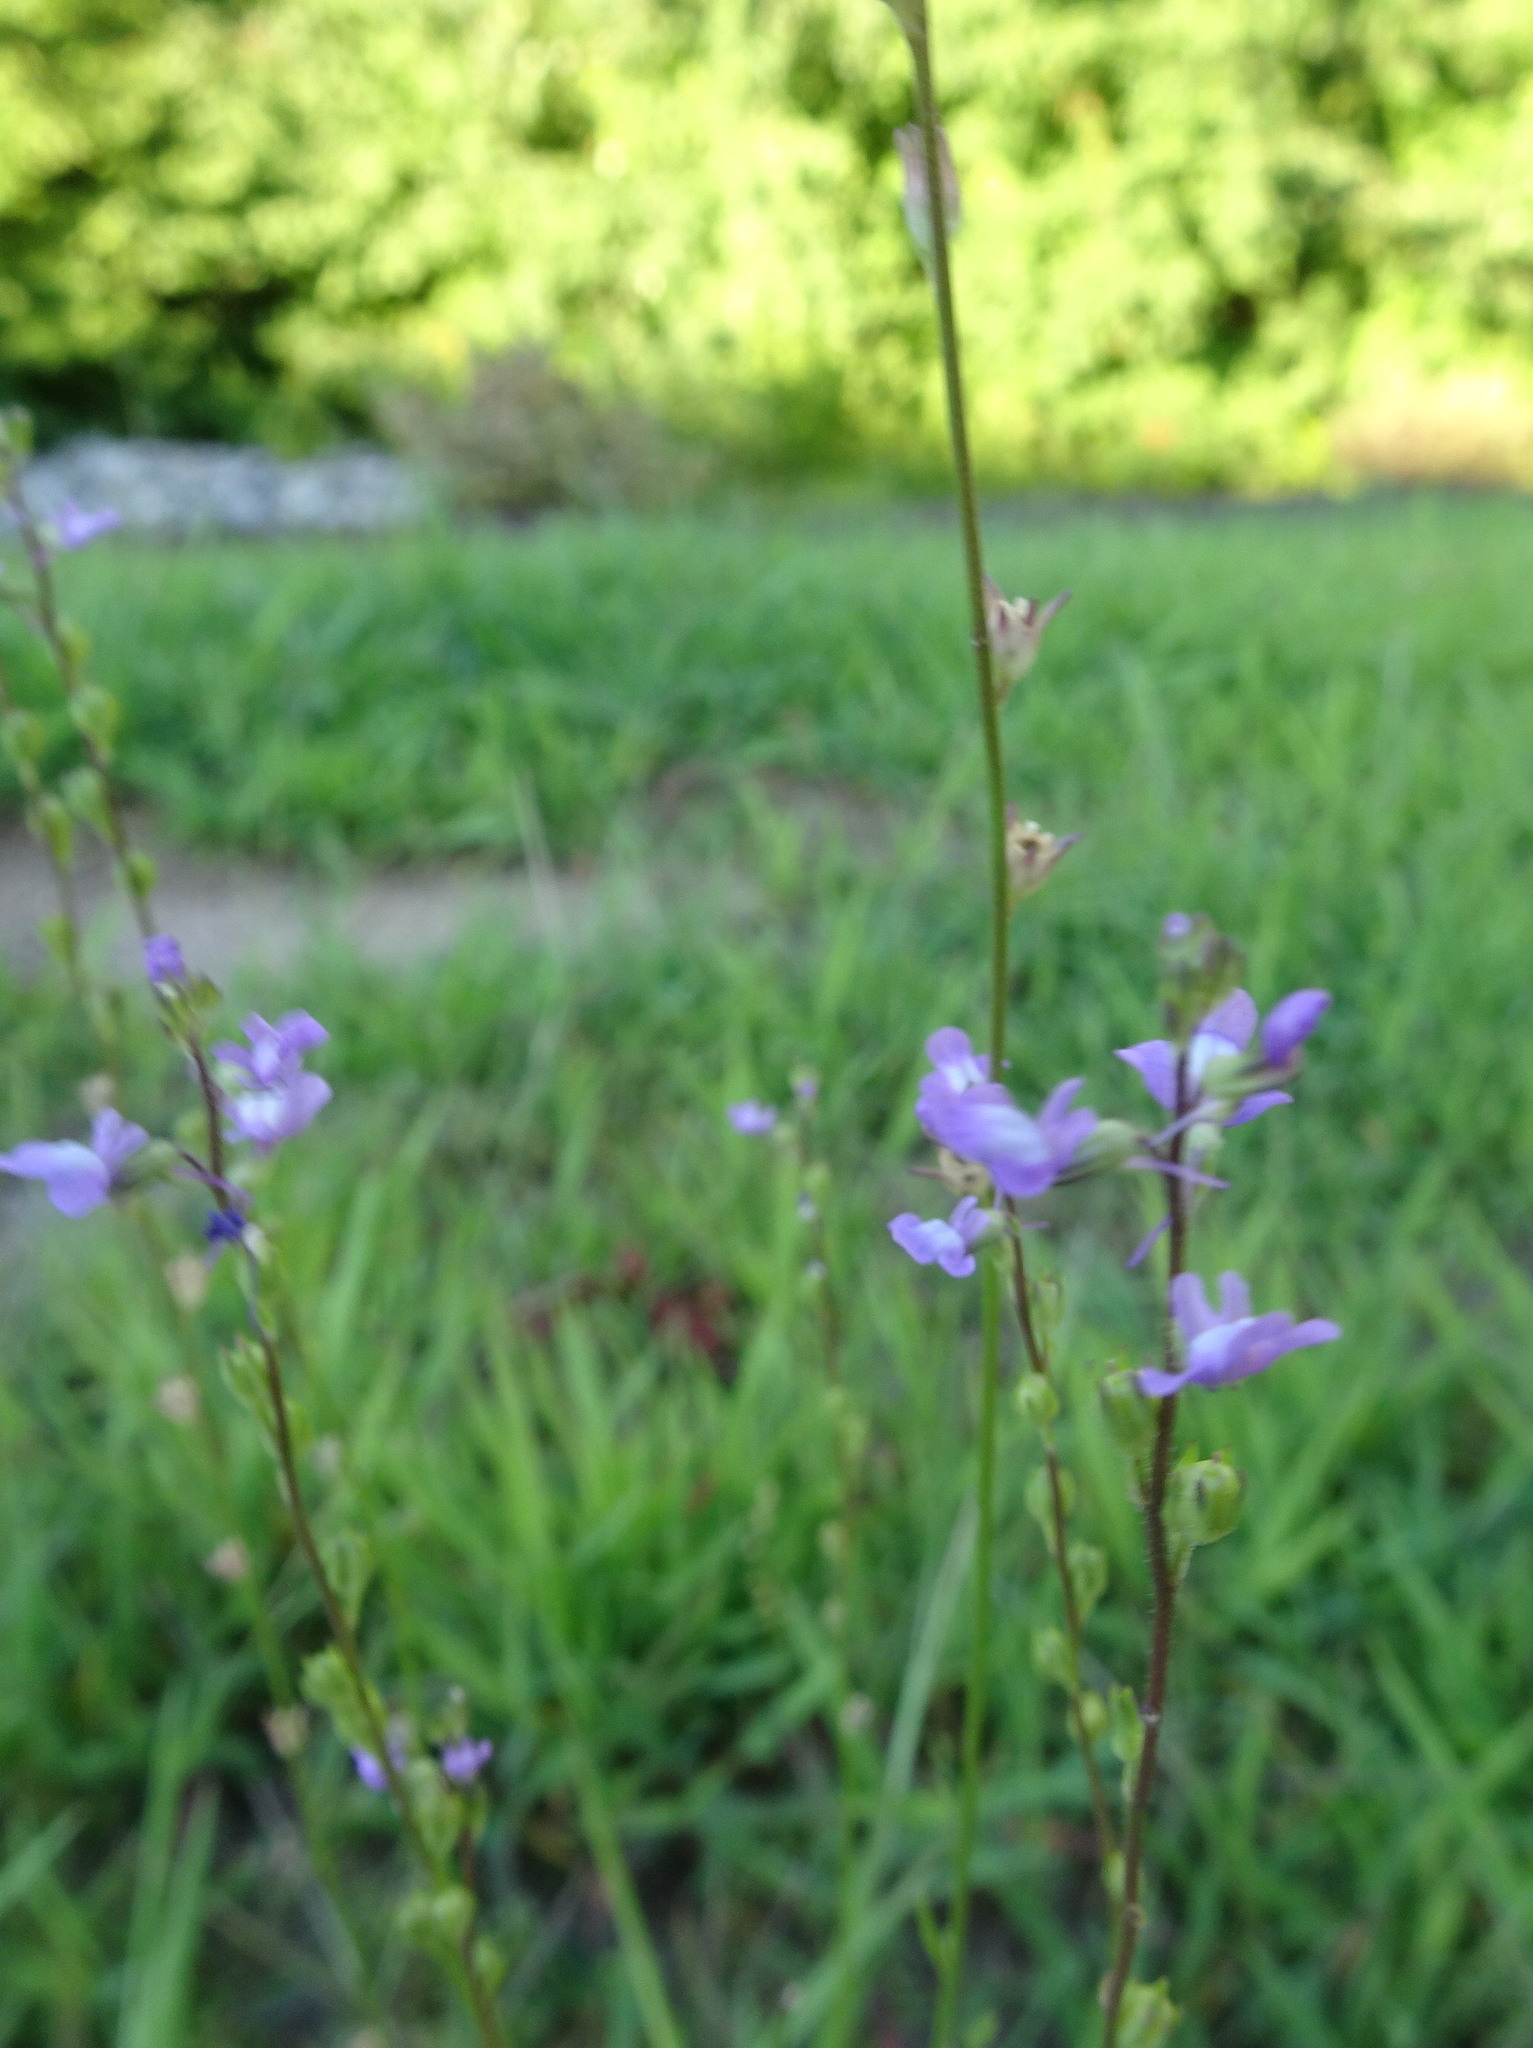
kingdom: Plantae
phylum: Tracheophyta
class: Magnoliopsida
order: Lamiales
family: Plantaginaceae
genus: Nuttallanthus
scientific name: Nuttallanthus canadensis
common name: Blue toadflax
